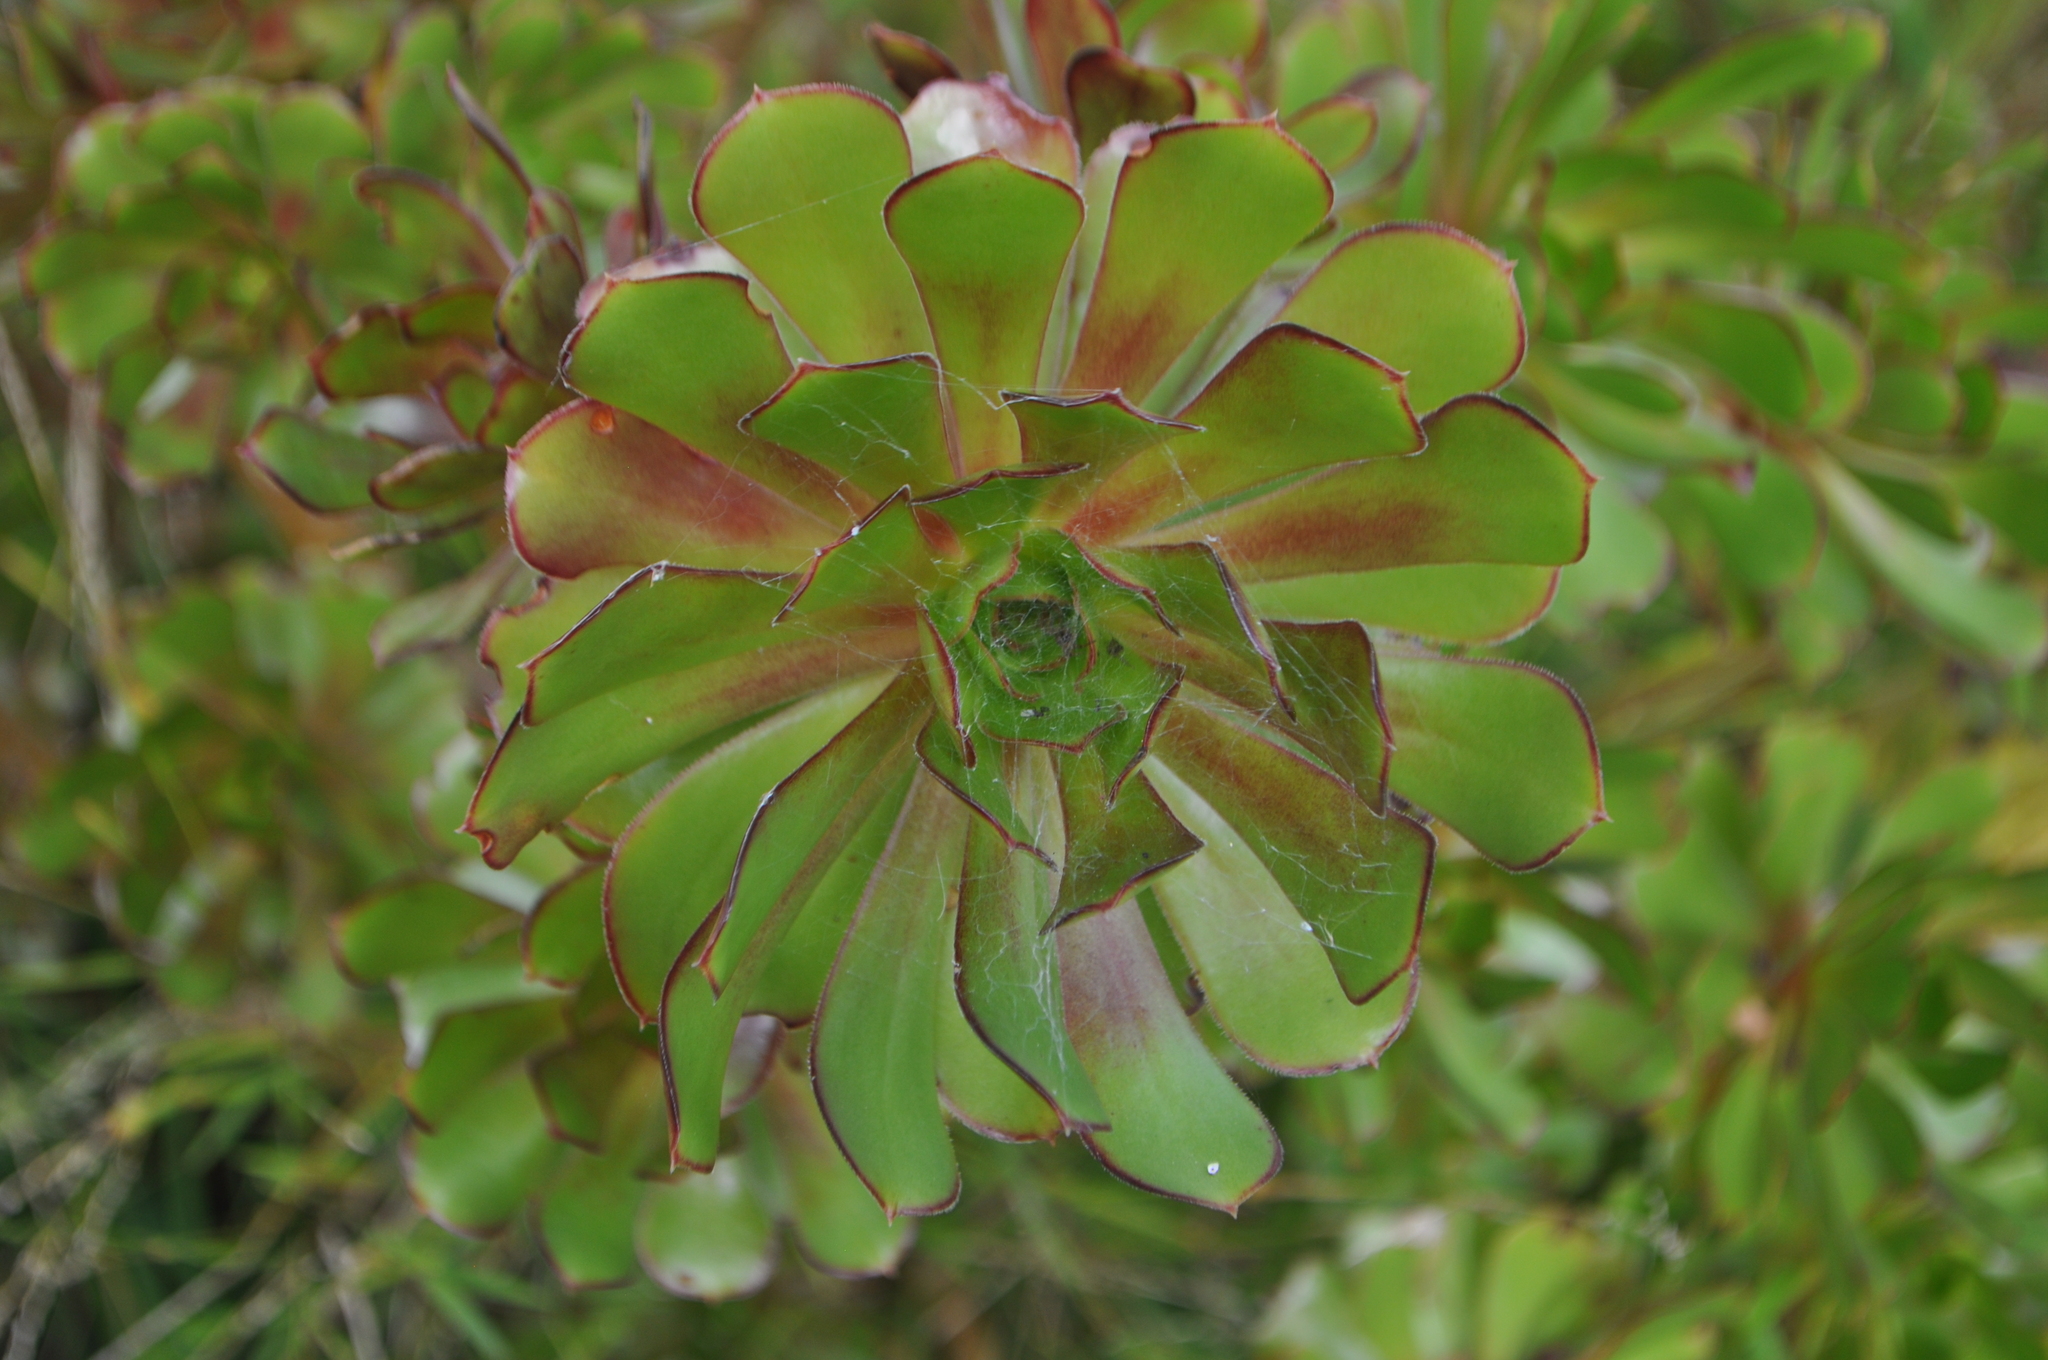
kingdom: Plantae
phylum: Tracheophyta
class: Magnoliopsida
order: Saxifragales
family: Crassulaceae
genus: Aeonium
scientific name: Aeonium arboreum
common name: Tree aeonium
